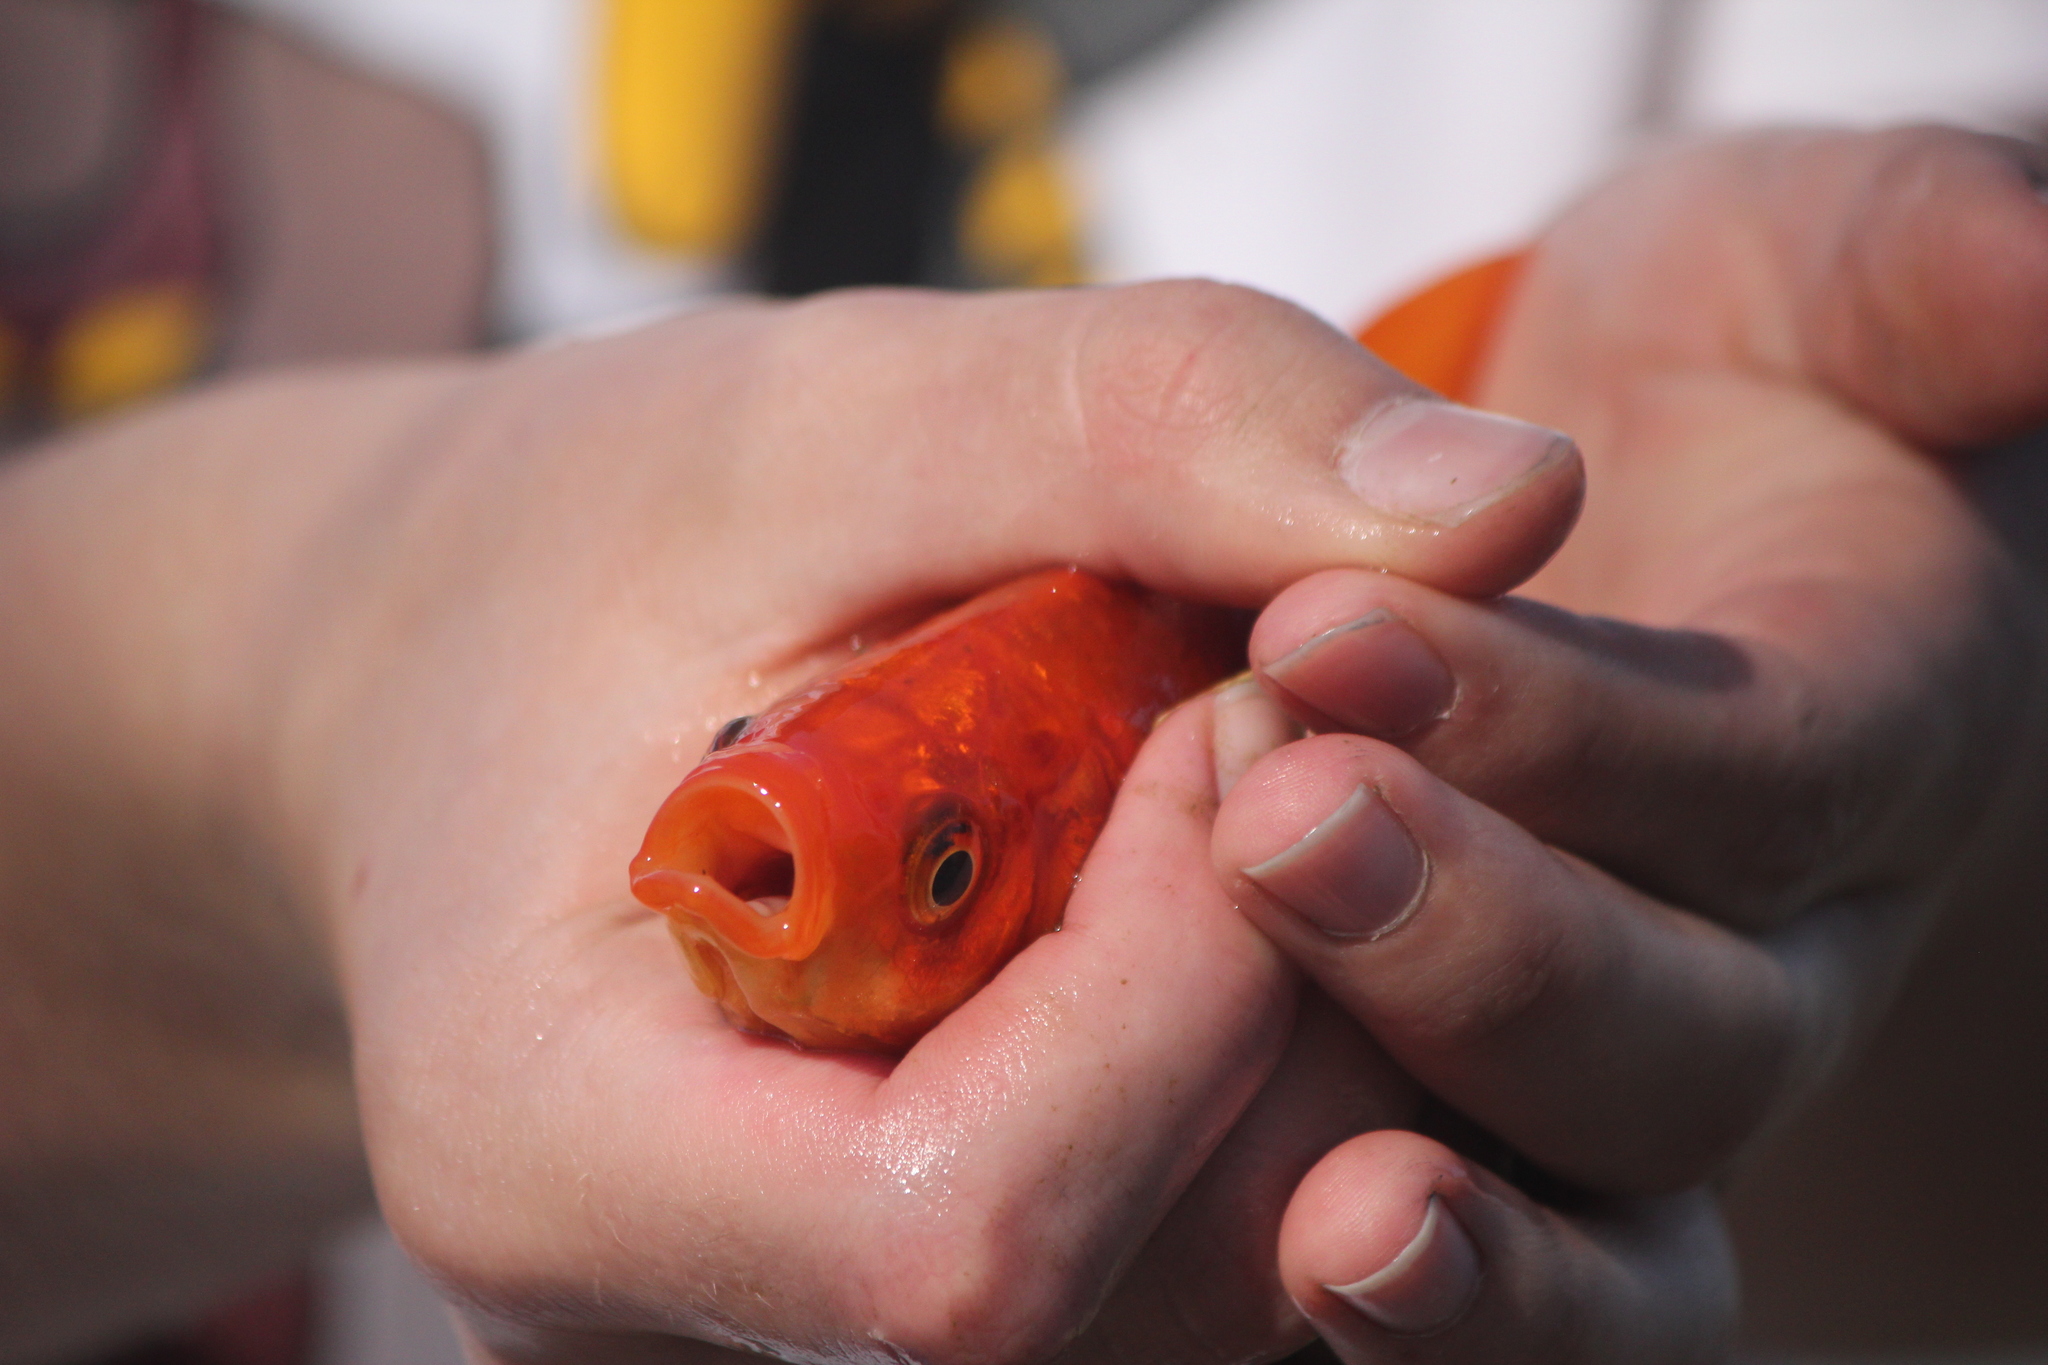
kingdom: Animalia
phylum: Chordata
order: Cypriniformes
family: Cyprinidae
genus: Carassius
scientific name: Carassius auratus
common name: Goldfish
